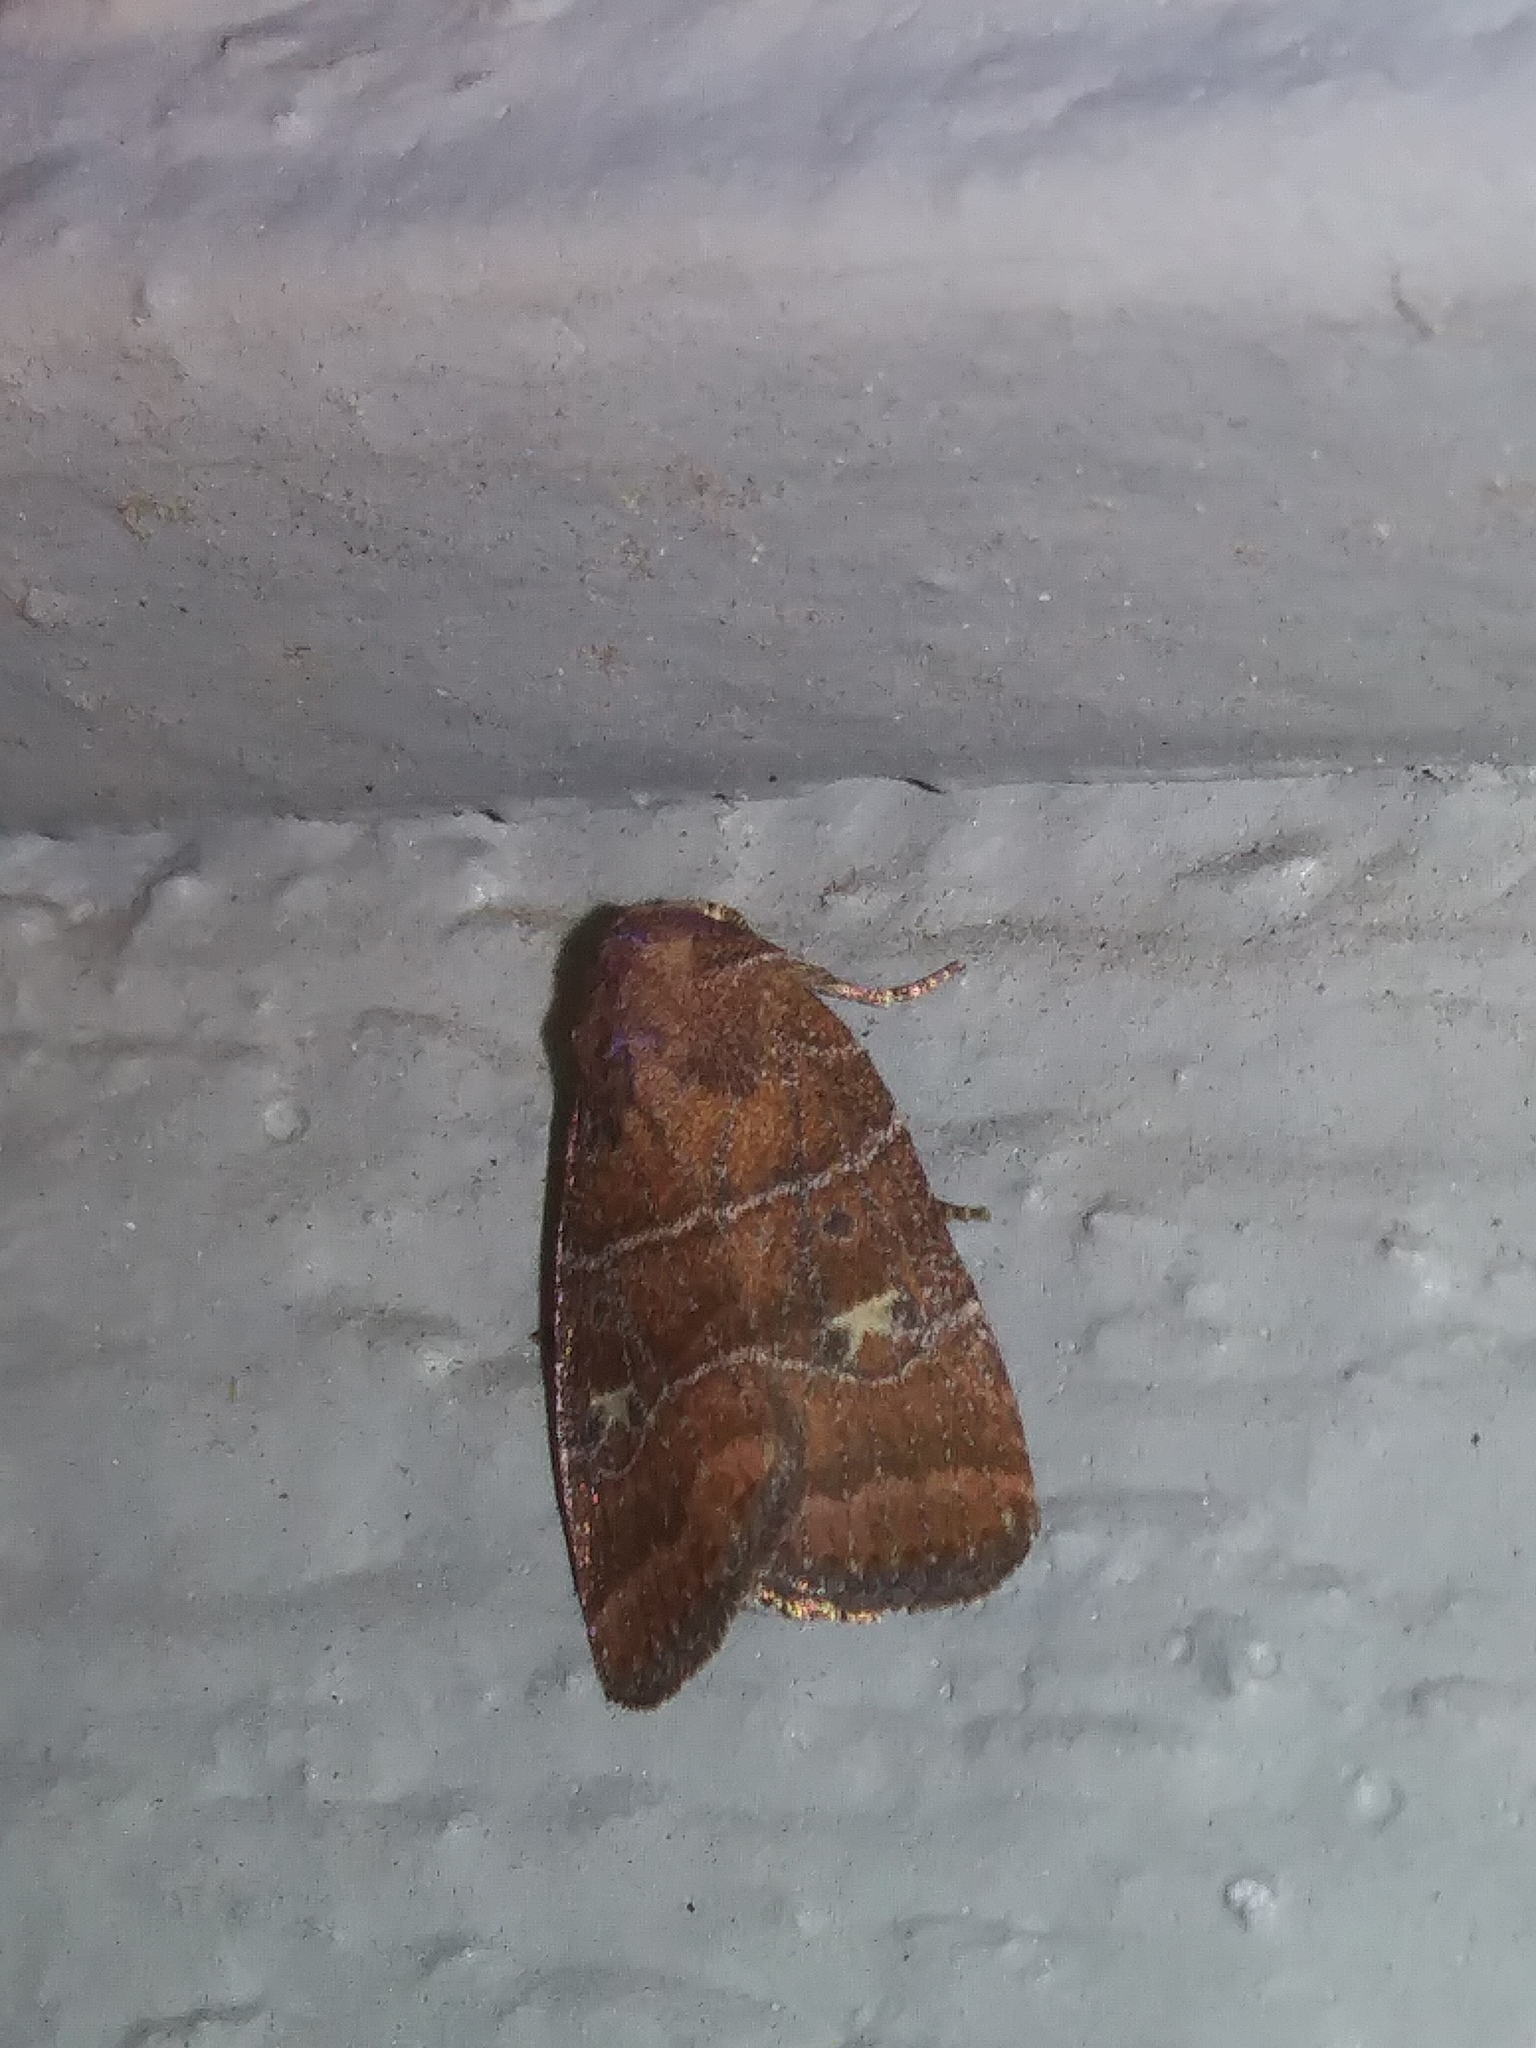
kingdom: Animalia
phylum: Arthropoda
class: Insecta
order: Lepidoptera
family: Noctuidae
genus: Elaphria
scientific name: Elaphria grata
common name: Grateful midget moth
